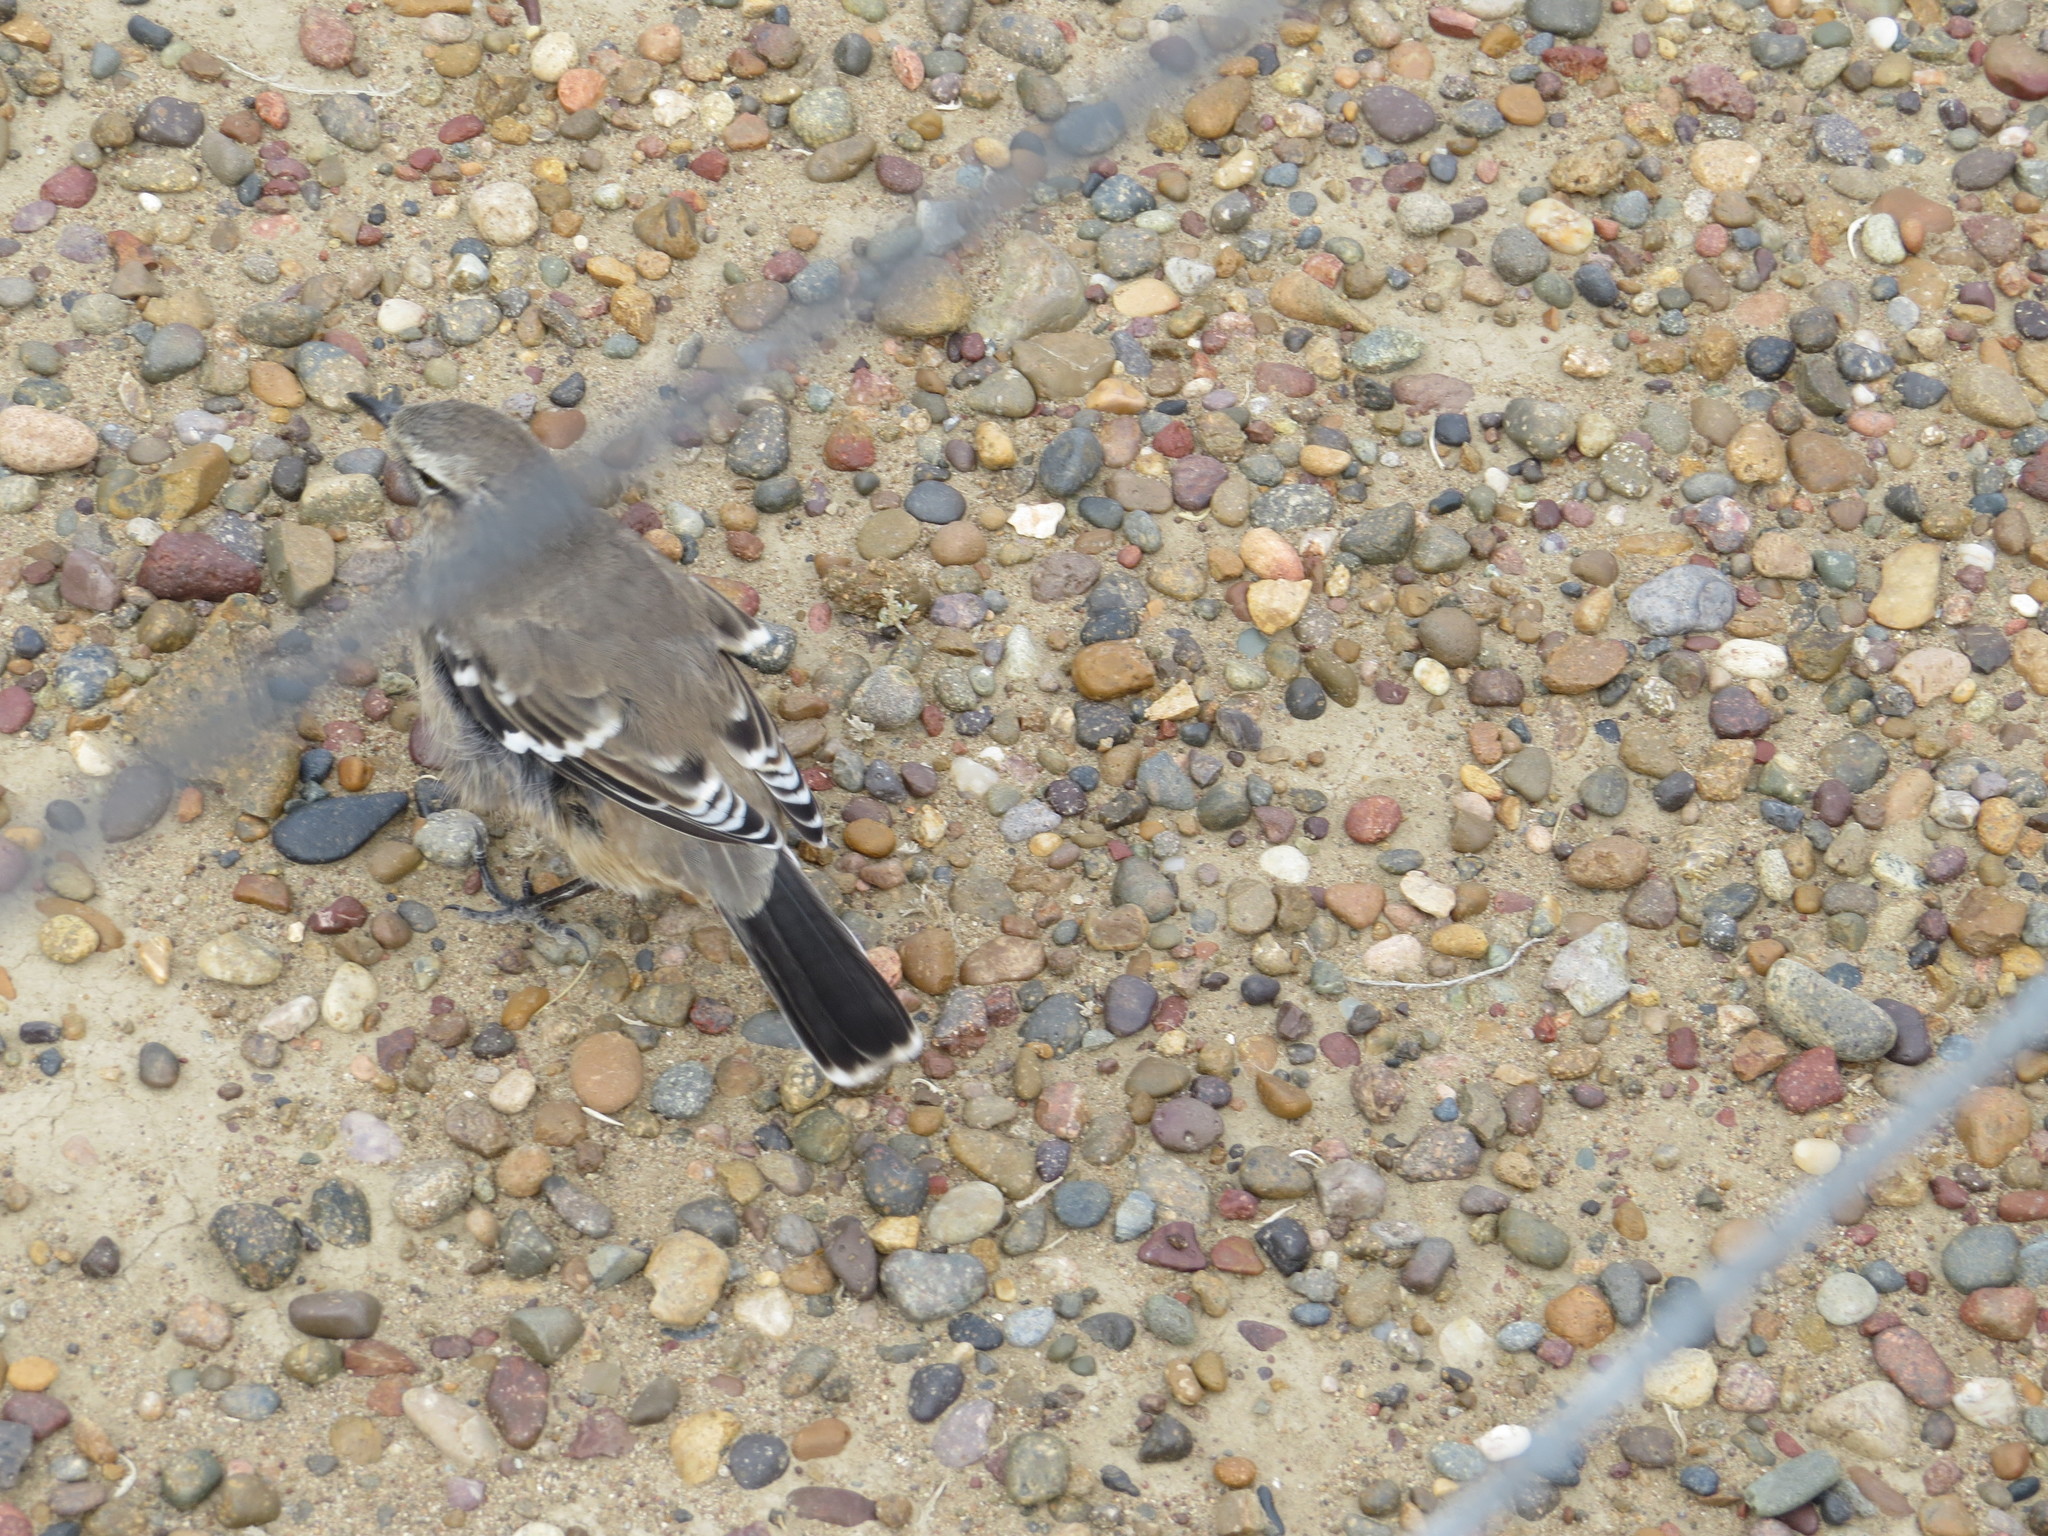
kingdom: Animalia
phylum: Chordata
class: Aves
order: Passeriformes
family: Mimidae
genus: Mimus
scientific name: Mimus patagonicus
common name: Patagonian mockingbird
